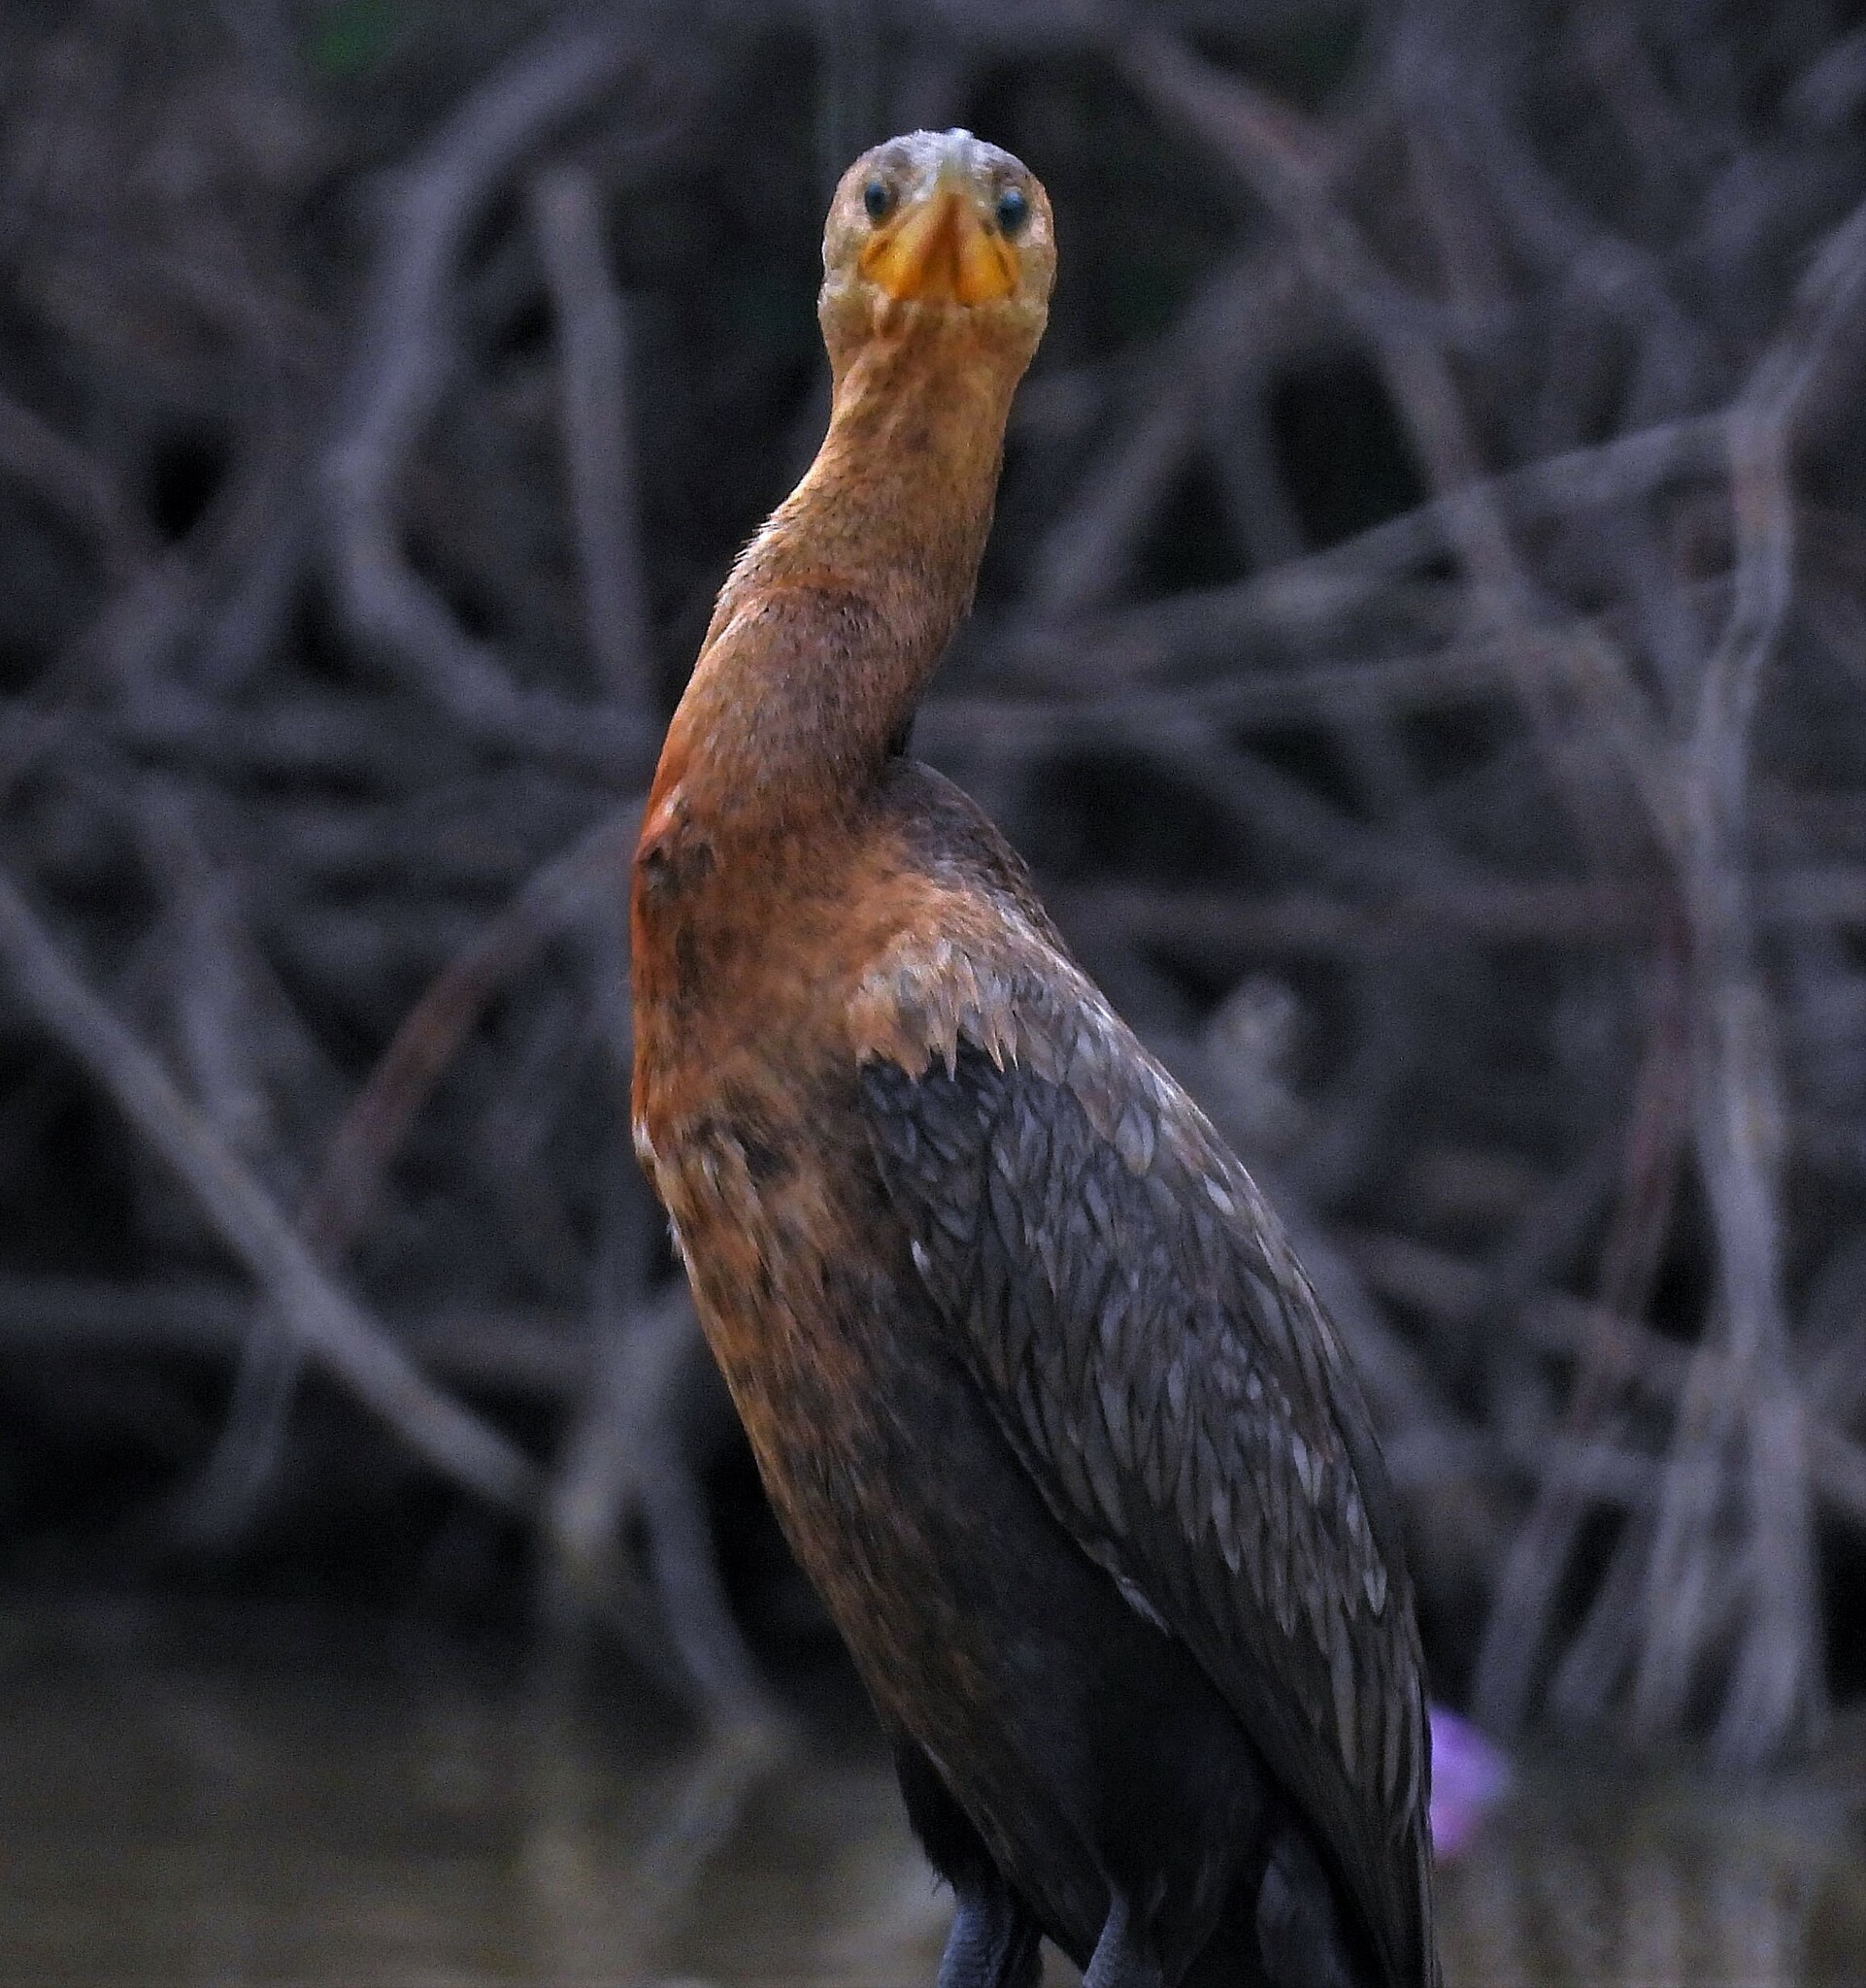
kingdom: Animalia
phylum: Chordata
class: Aves
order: Suliformes
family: Phalacrocoracidae
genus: Phalacrocorax
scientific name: Phalacrocorax brasilianus
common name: Neotropic cormorant
